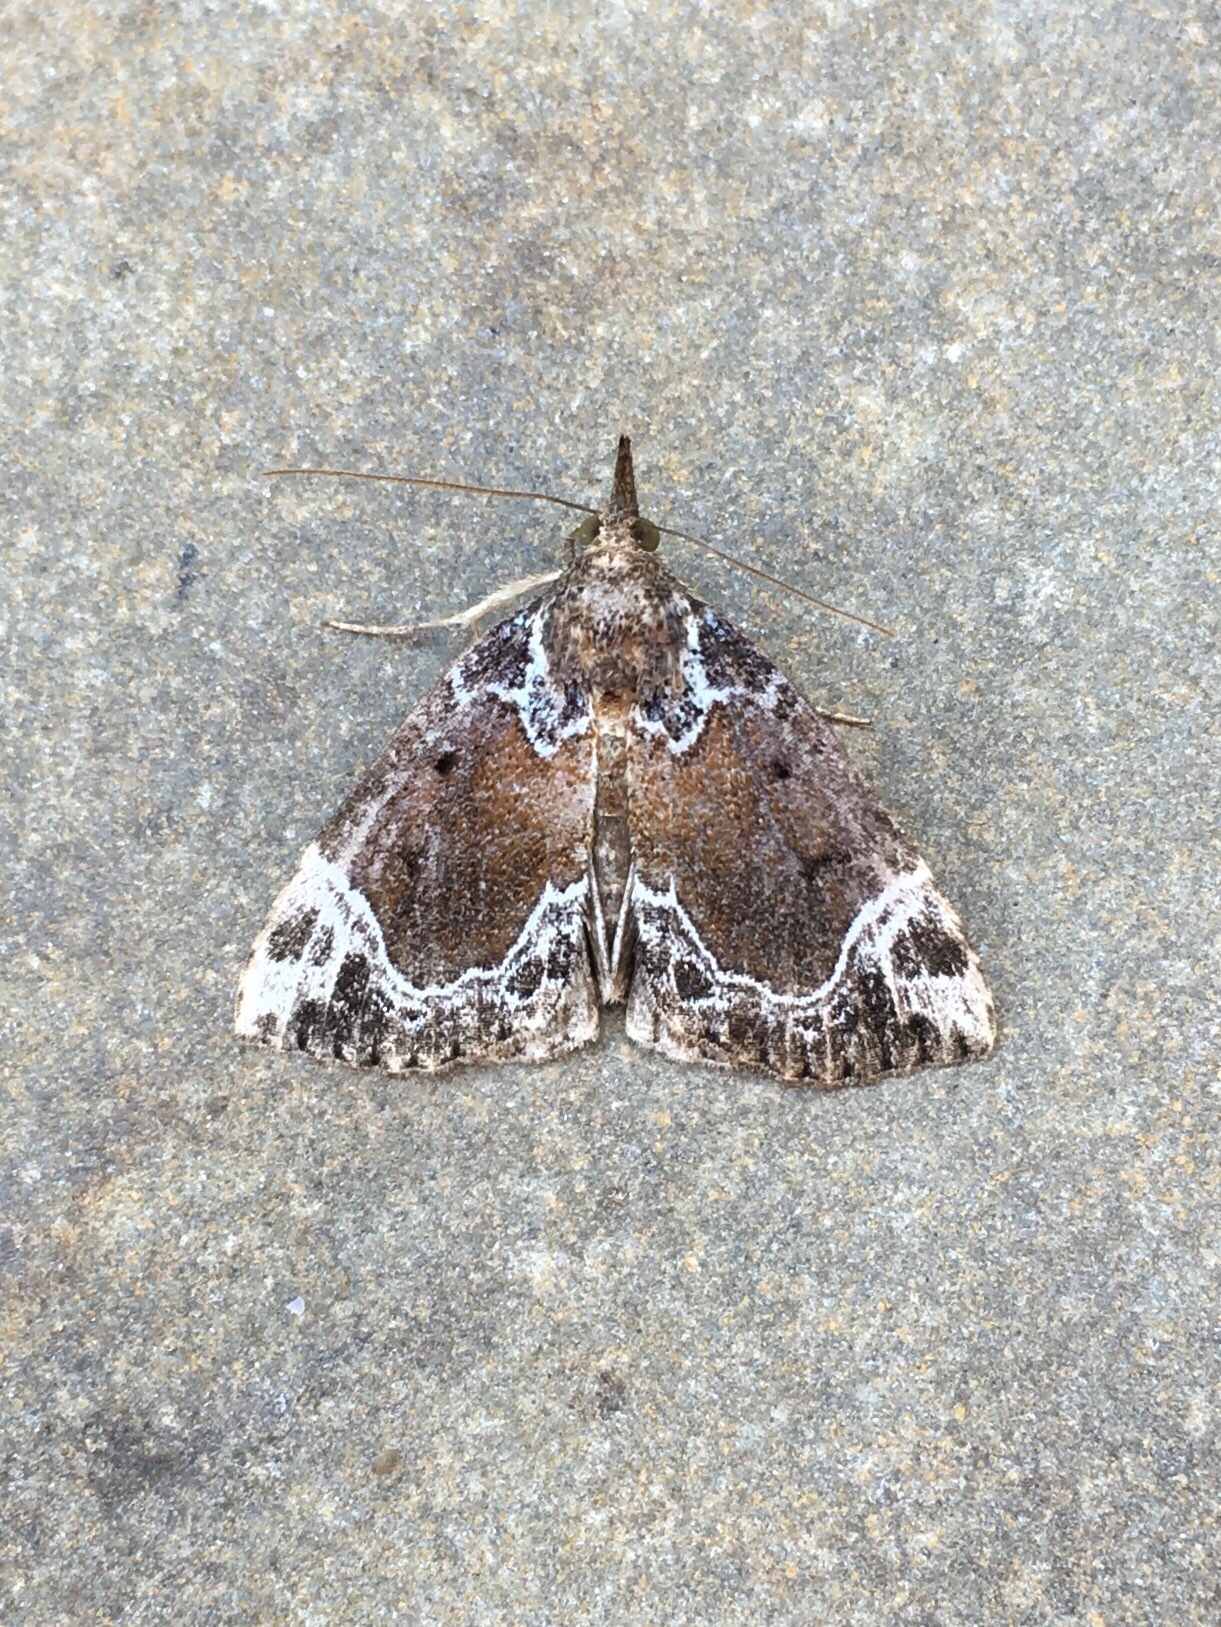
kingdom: Animalia
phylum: Arthropoda
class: Insecta
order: Lepidoptera
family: Erebidae
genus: Hypena
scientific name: Hypena abalienalis
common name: White-lined snout
